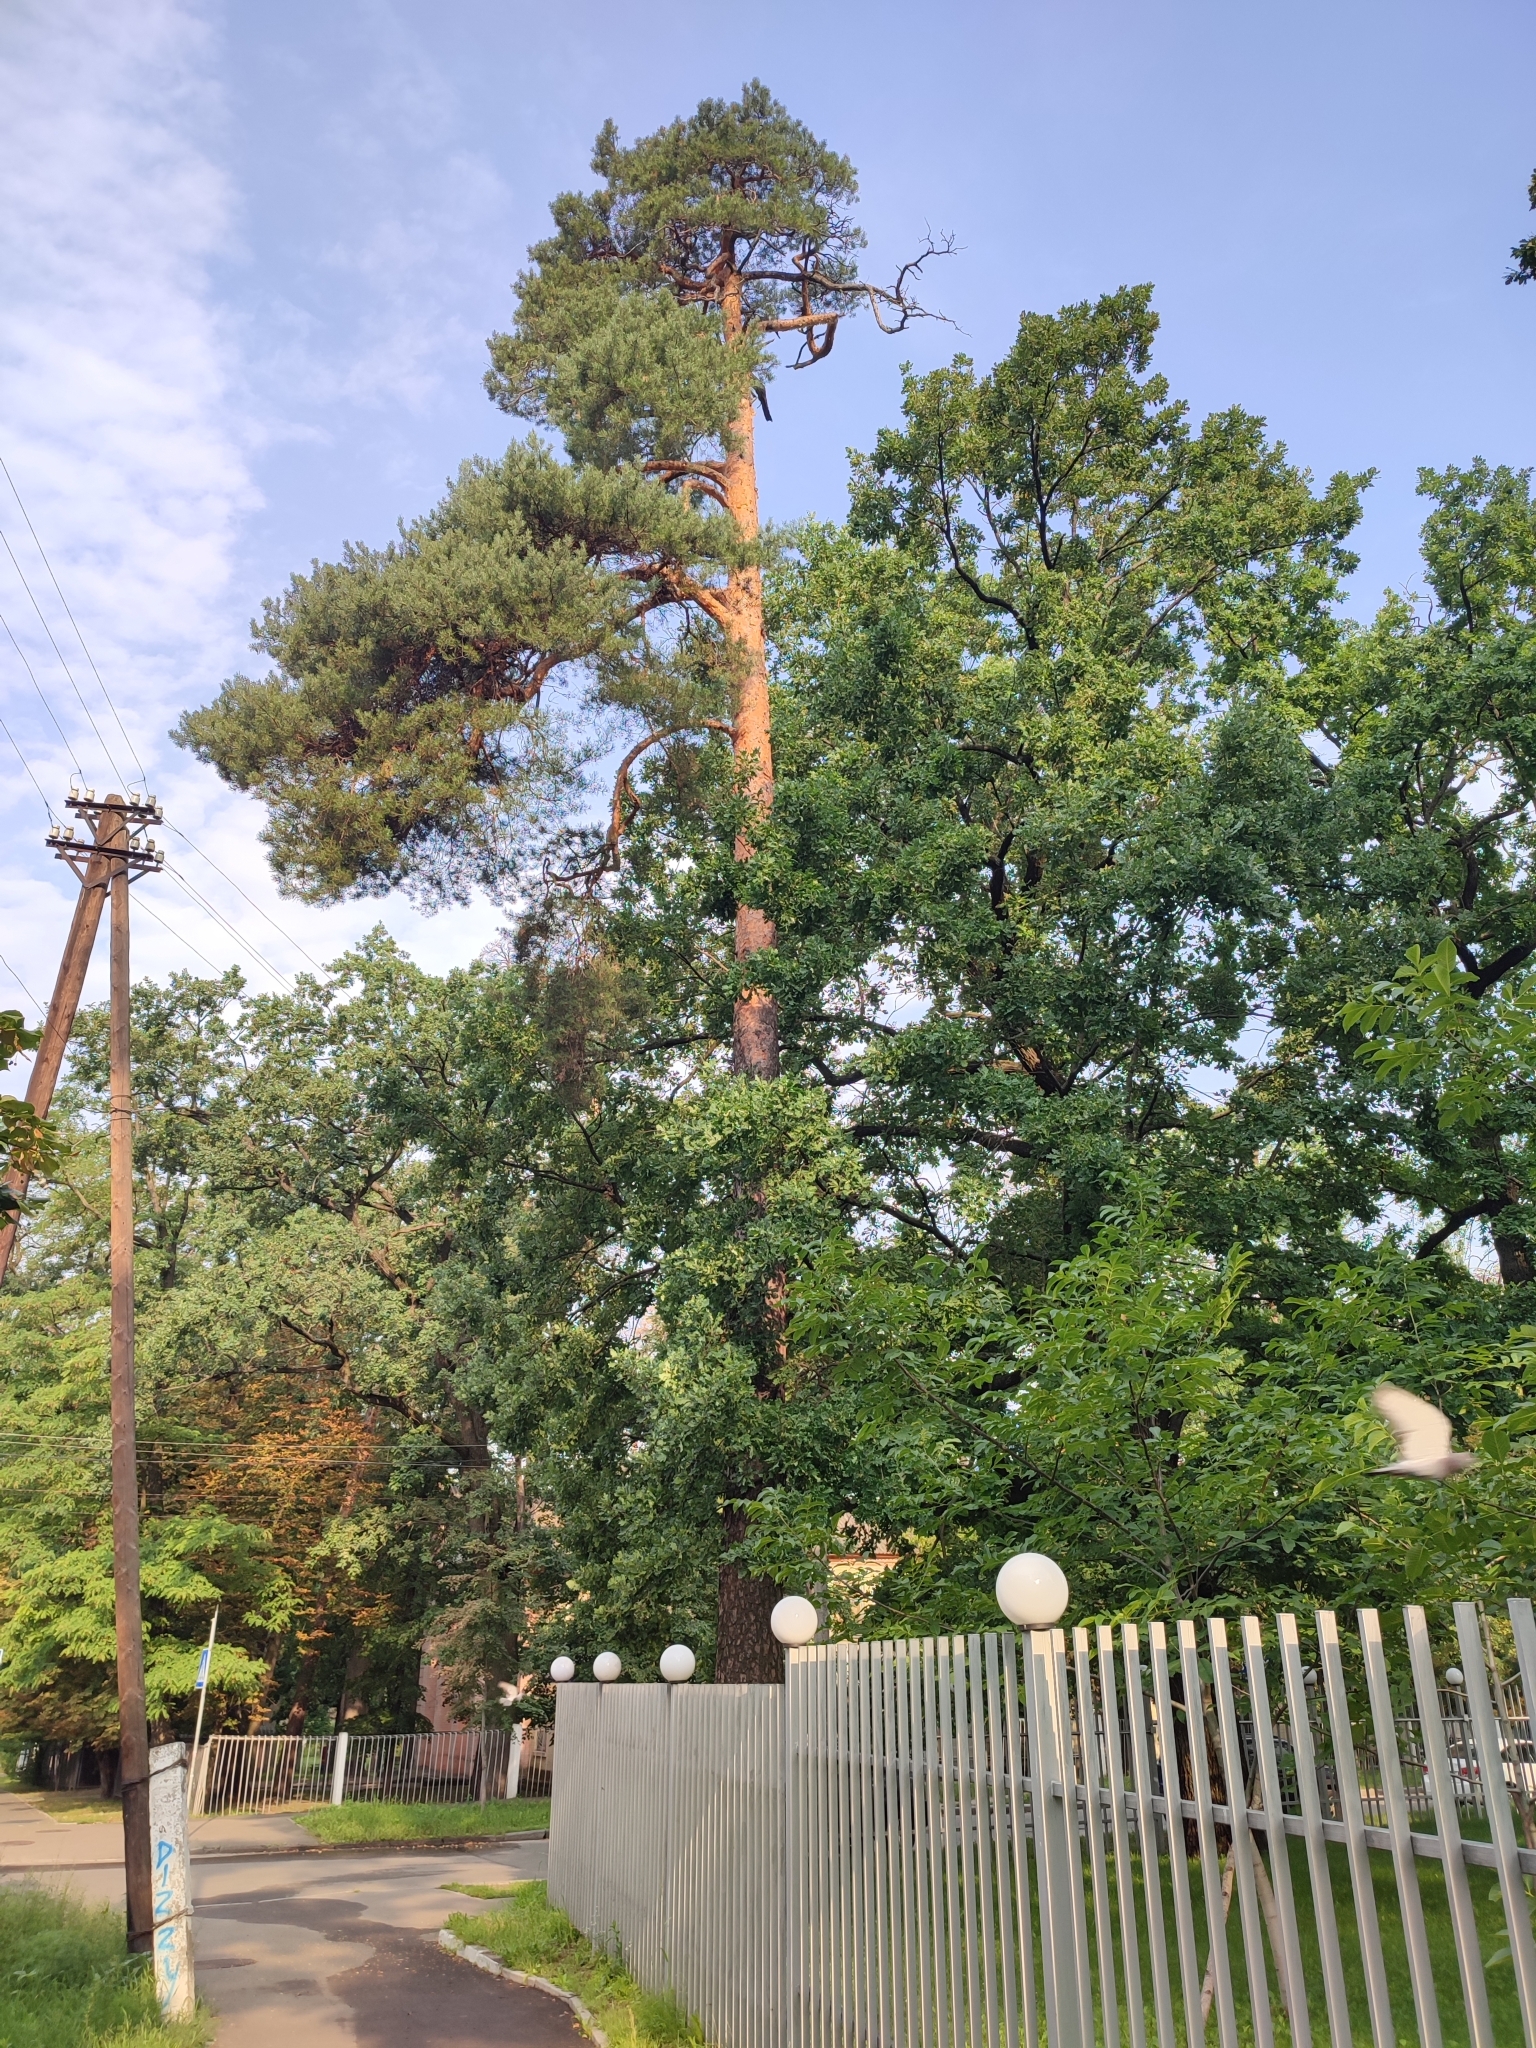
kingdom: Plantae
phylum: Tracheophyta
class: Pinopsida
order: Pinales
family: Pinaceae
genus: Pinus
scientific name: Pinus sylvestris
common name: Scots pine
